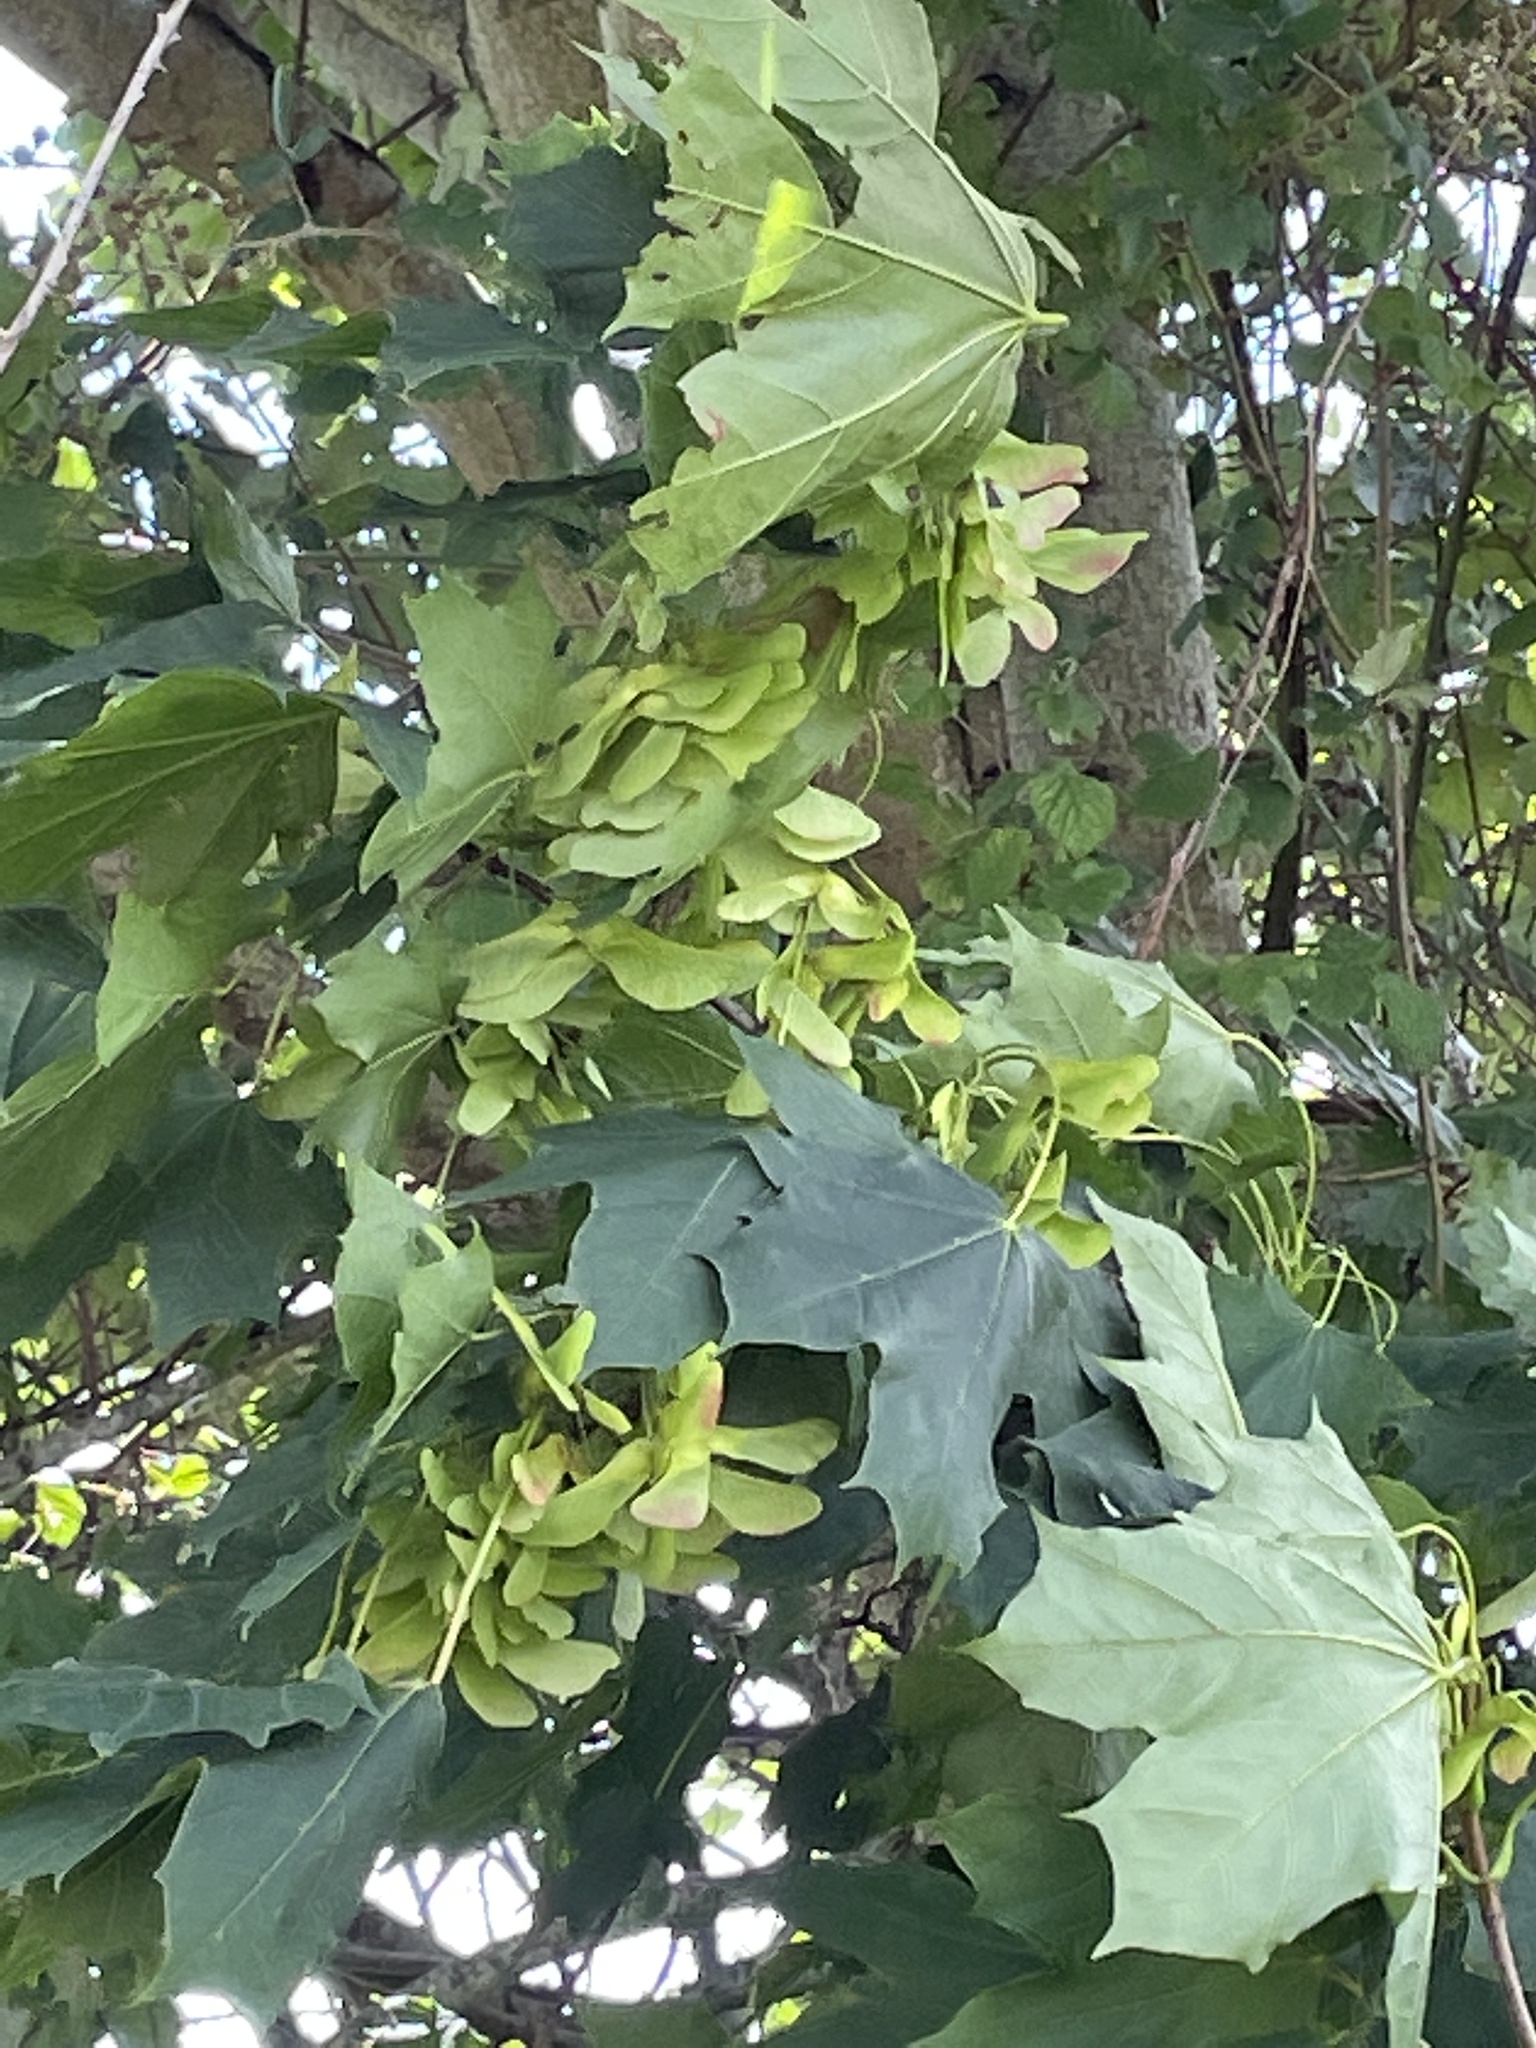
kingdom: Plantae
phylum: Tracheophyta
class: Magnoliopsida
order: Sapindales
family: Sapindaceae
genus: Acer
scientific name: Acer platanoides
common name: Norway maple
